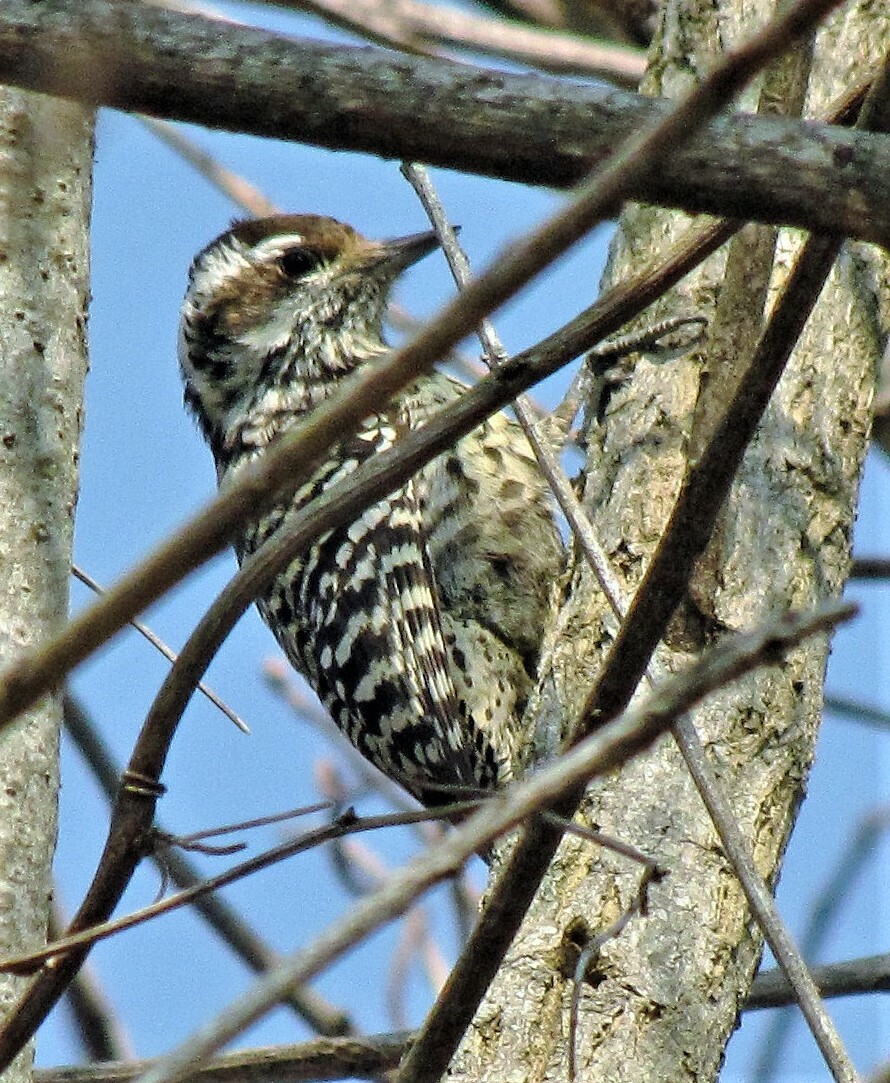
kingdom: Animalia
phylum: Chordata
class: Aves
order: Piciformes
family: Picidae
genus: Veniliornis
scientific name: Veniliornis mixtus
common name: Checkered woodpecker
